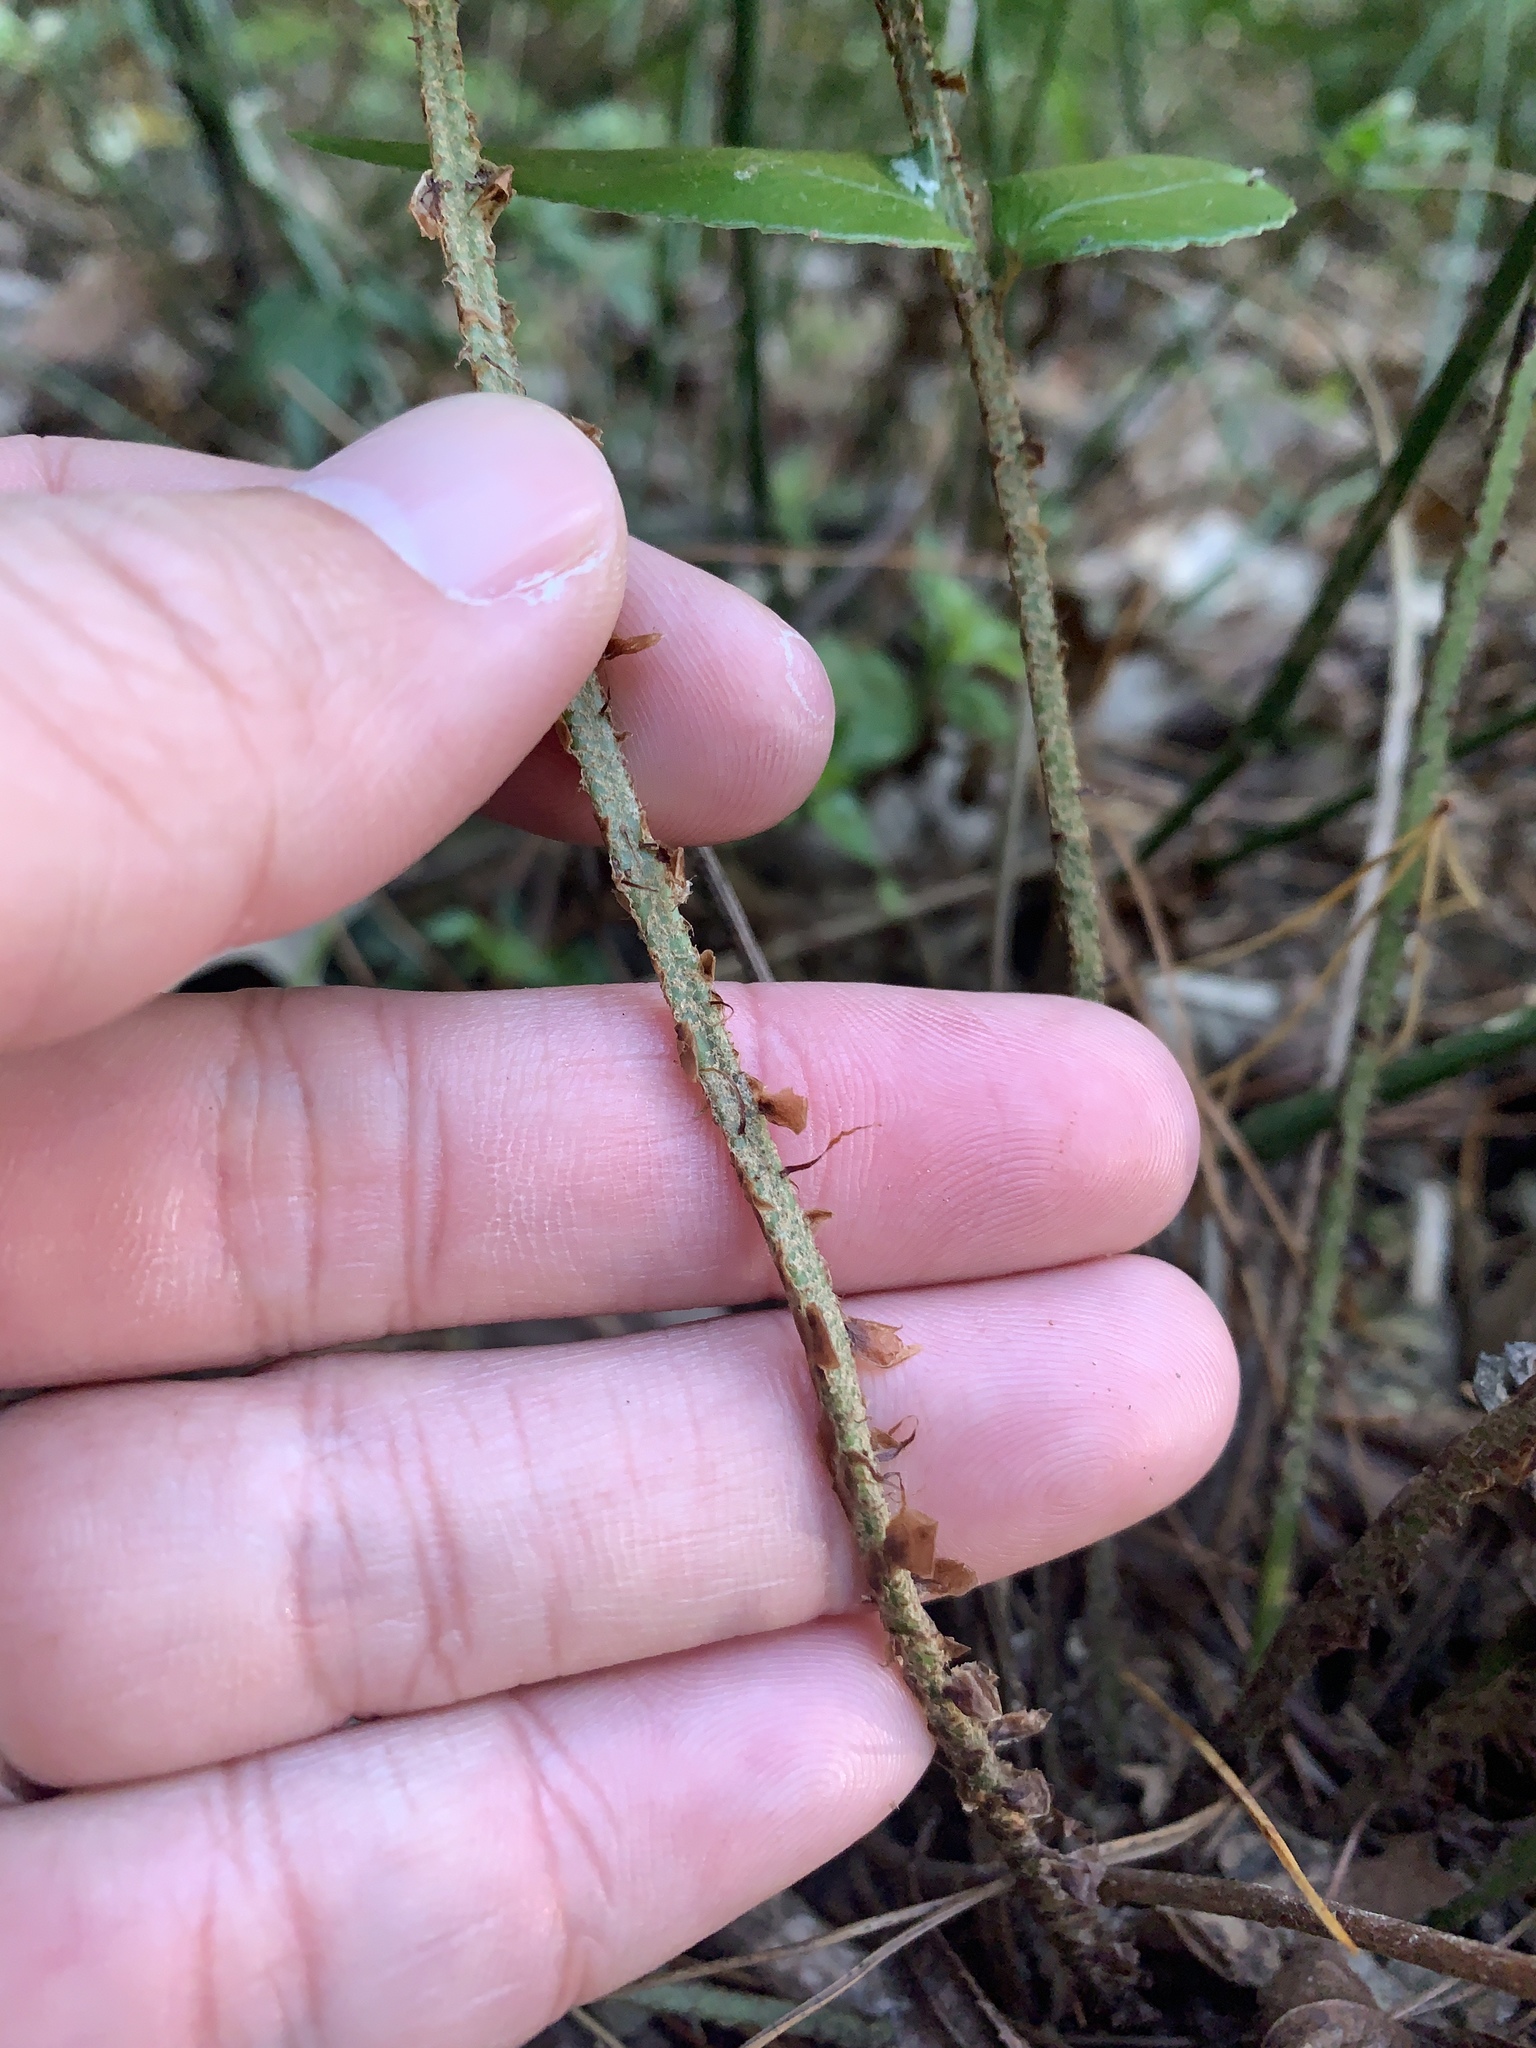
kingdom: Plantae
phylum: Tracheophyta
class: Polypodiopsida
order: Polypodiales
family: Dryopteridaceae
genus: Polystichum
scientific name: Polystichum lepidocaulon
